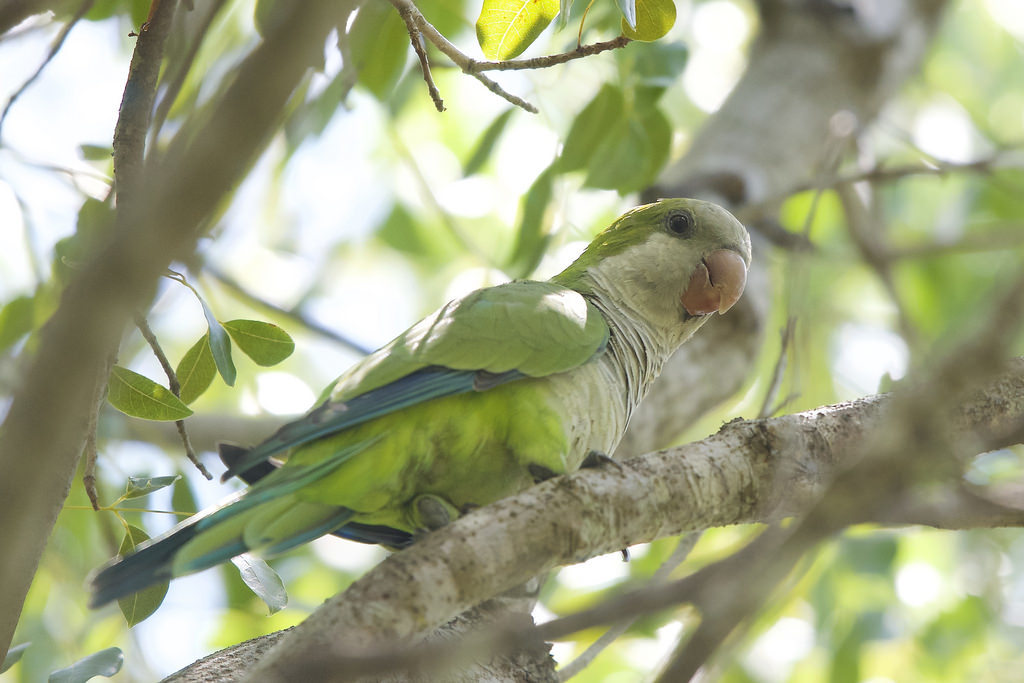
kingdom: Animalia
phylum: Chordata
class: Aves
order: Psittaciformes
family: Psittacidae
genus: Myiopsitta
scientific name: Myiopsitta monachus
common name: Monk parakeet
